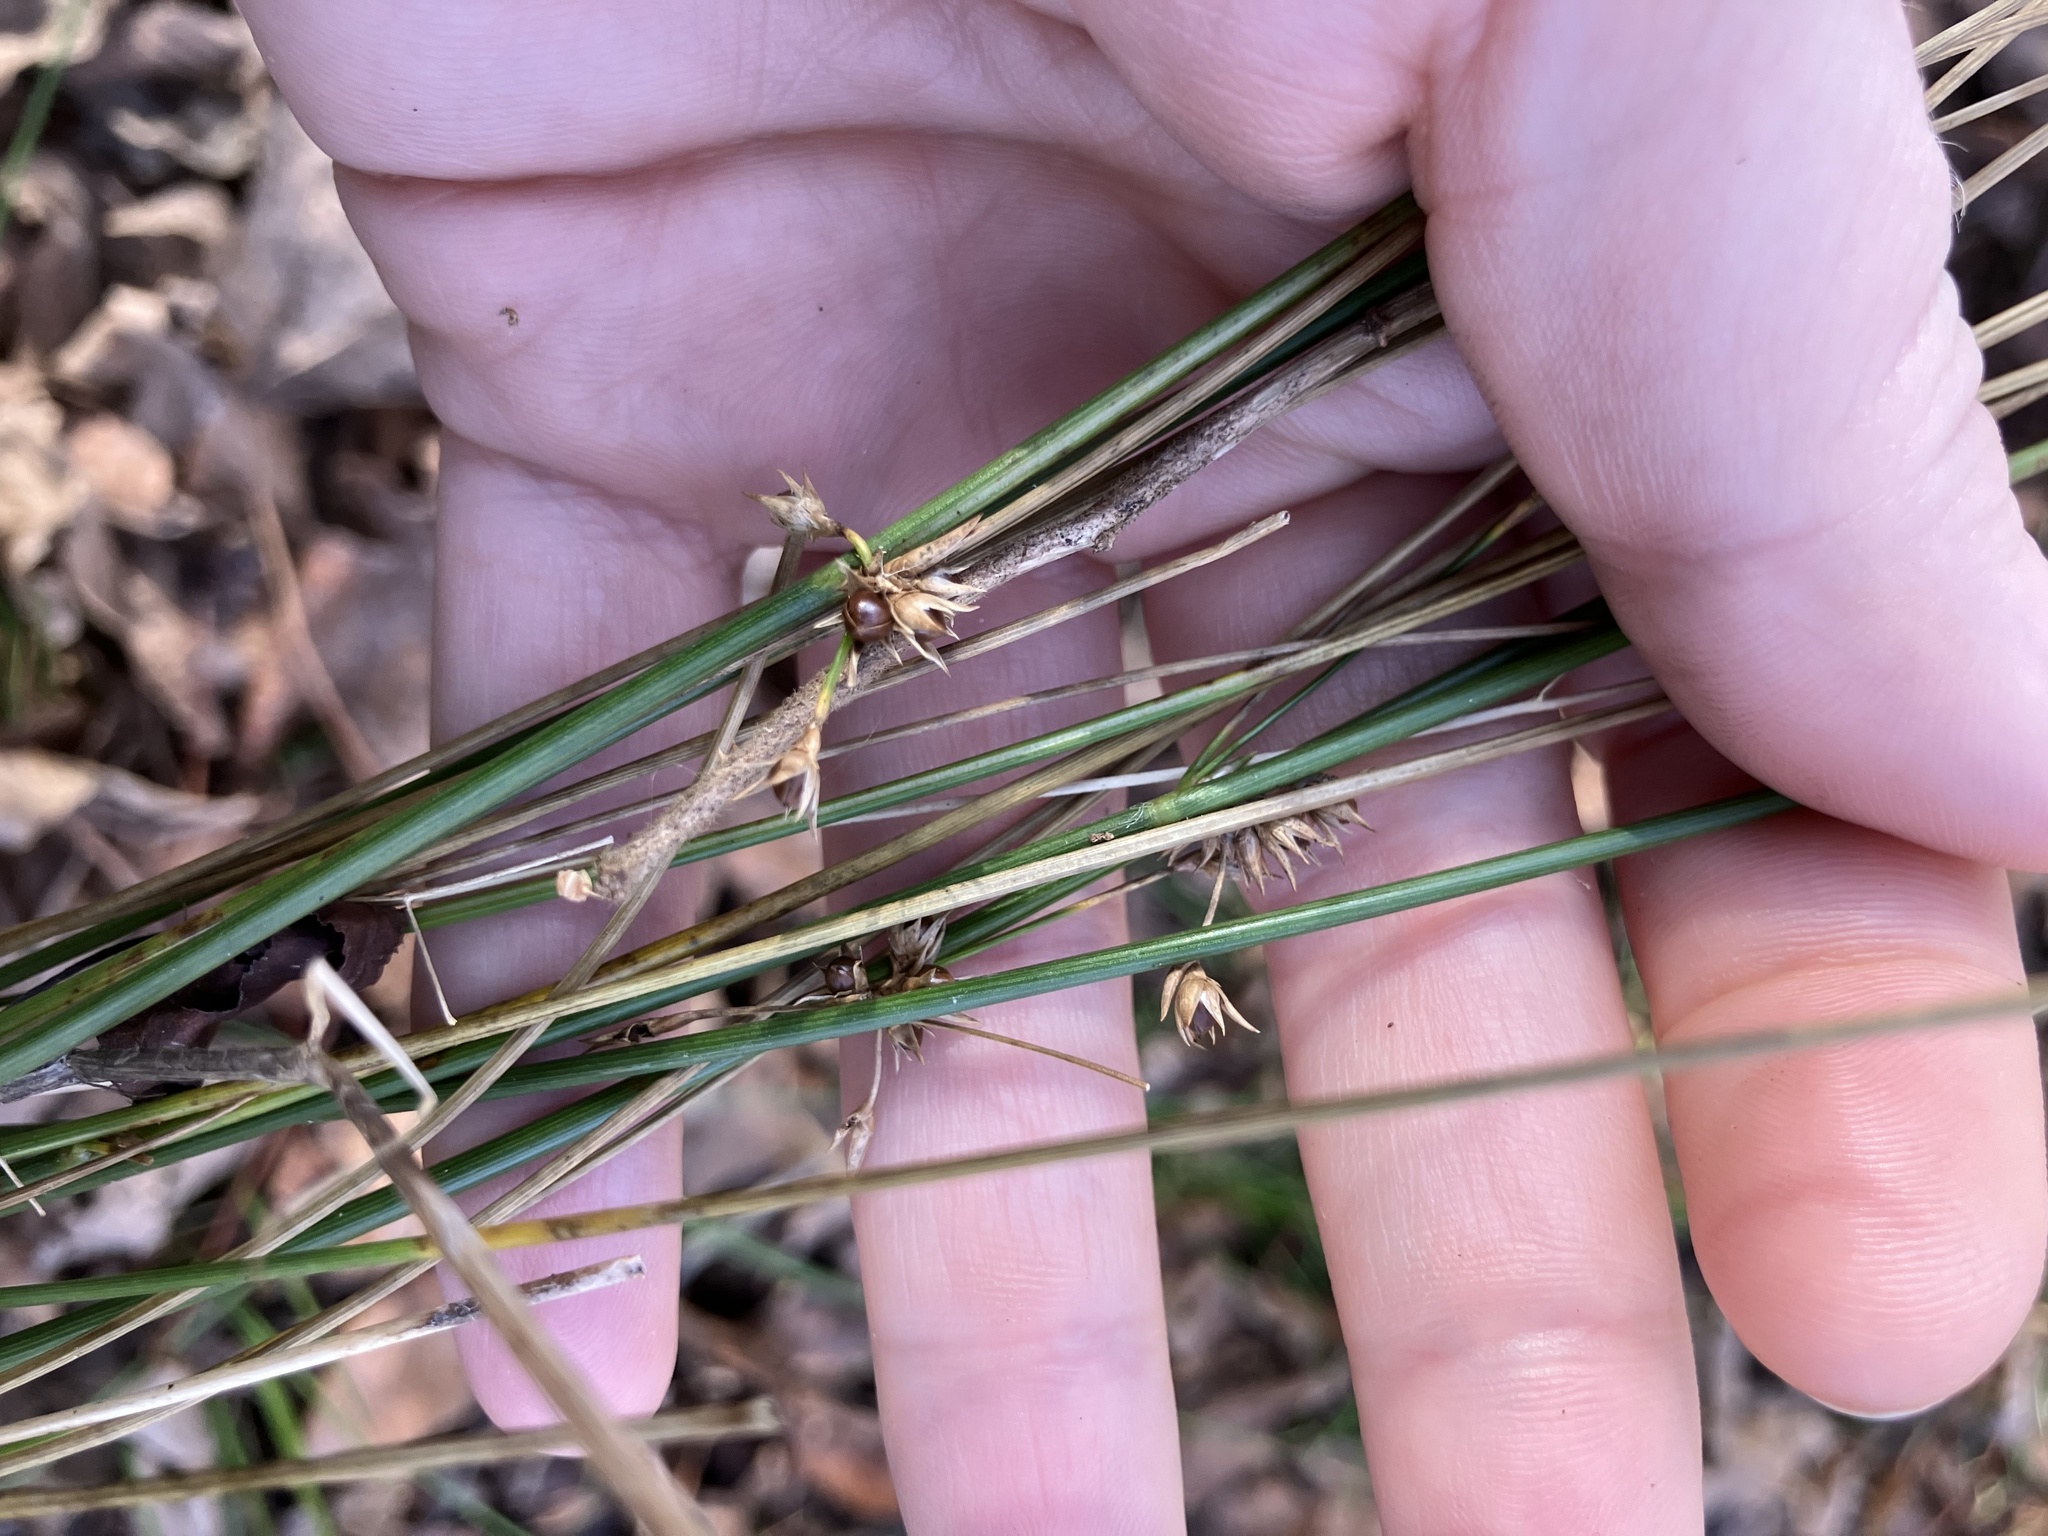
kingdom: Plantae
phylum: Tracheophyta
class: Liliopsida
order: Poales
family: Juncaceae
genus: Juncus
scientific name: Juncus coriaceus
